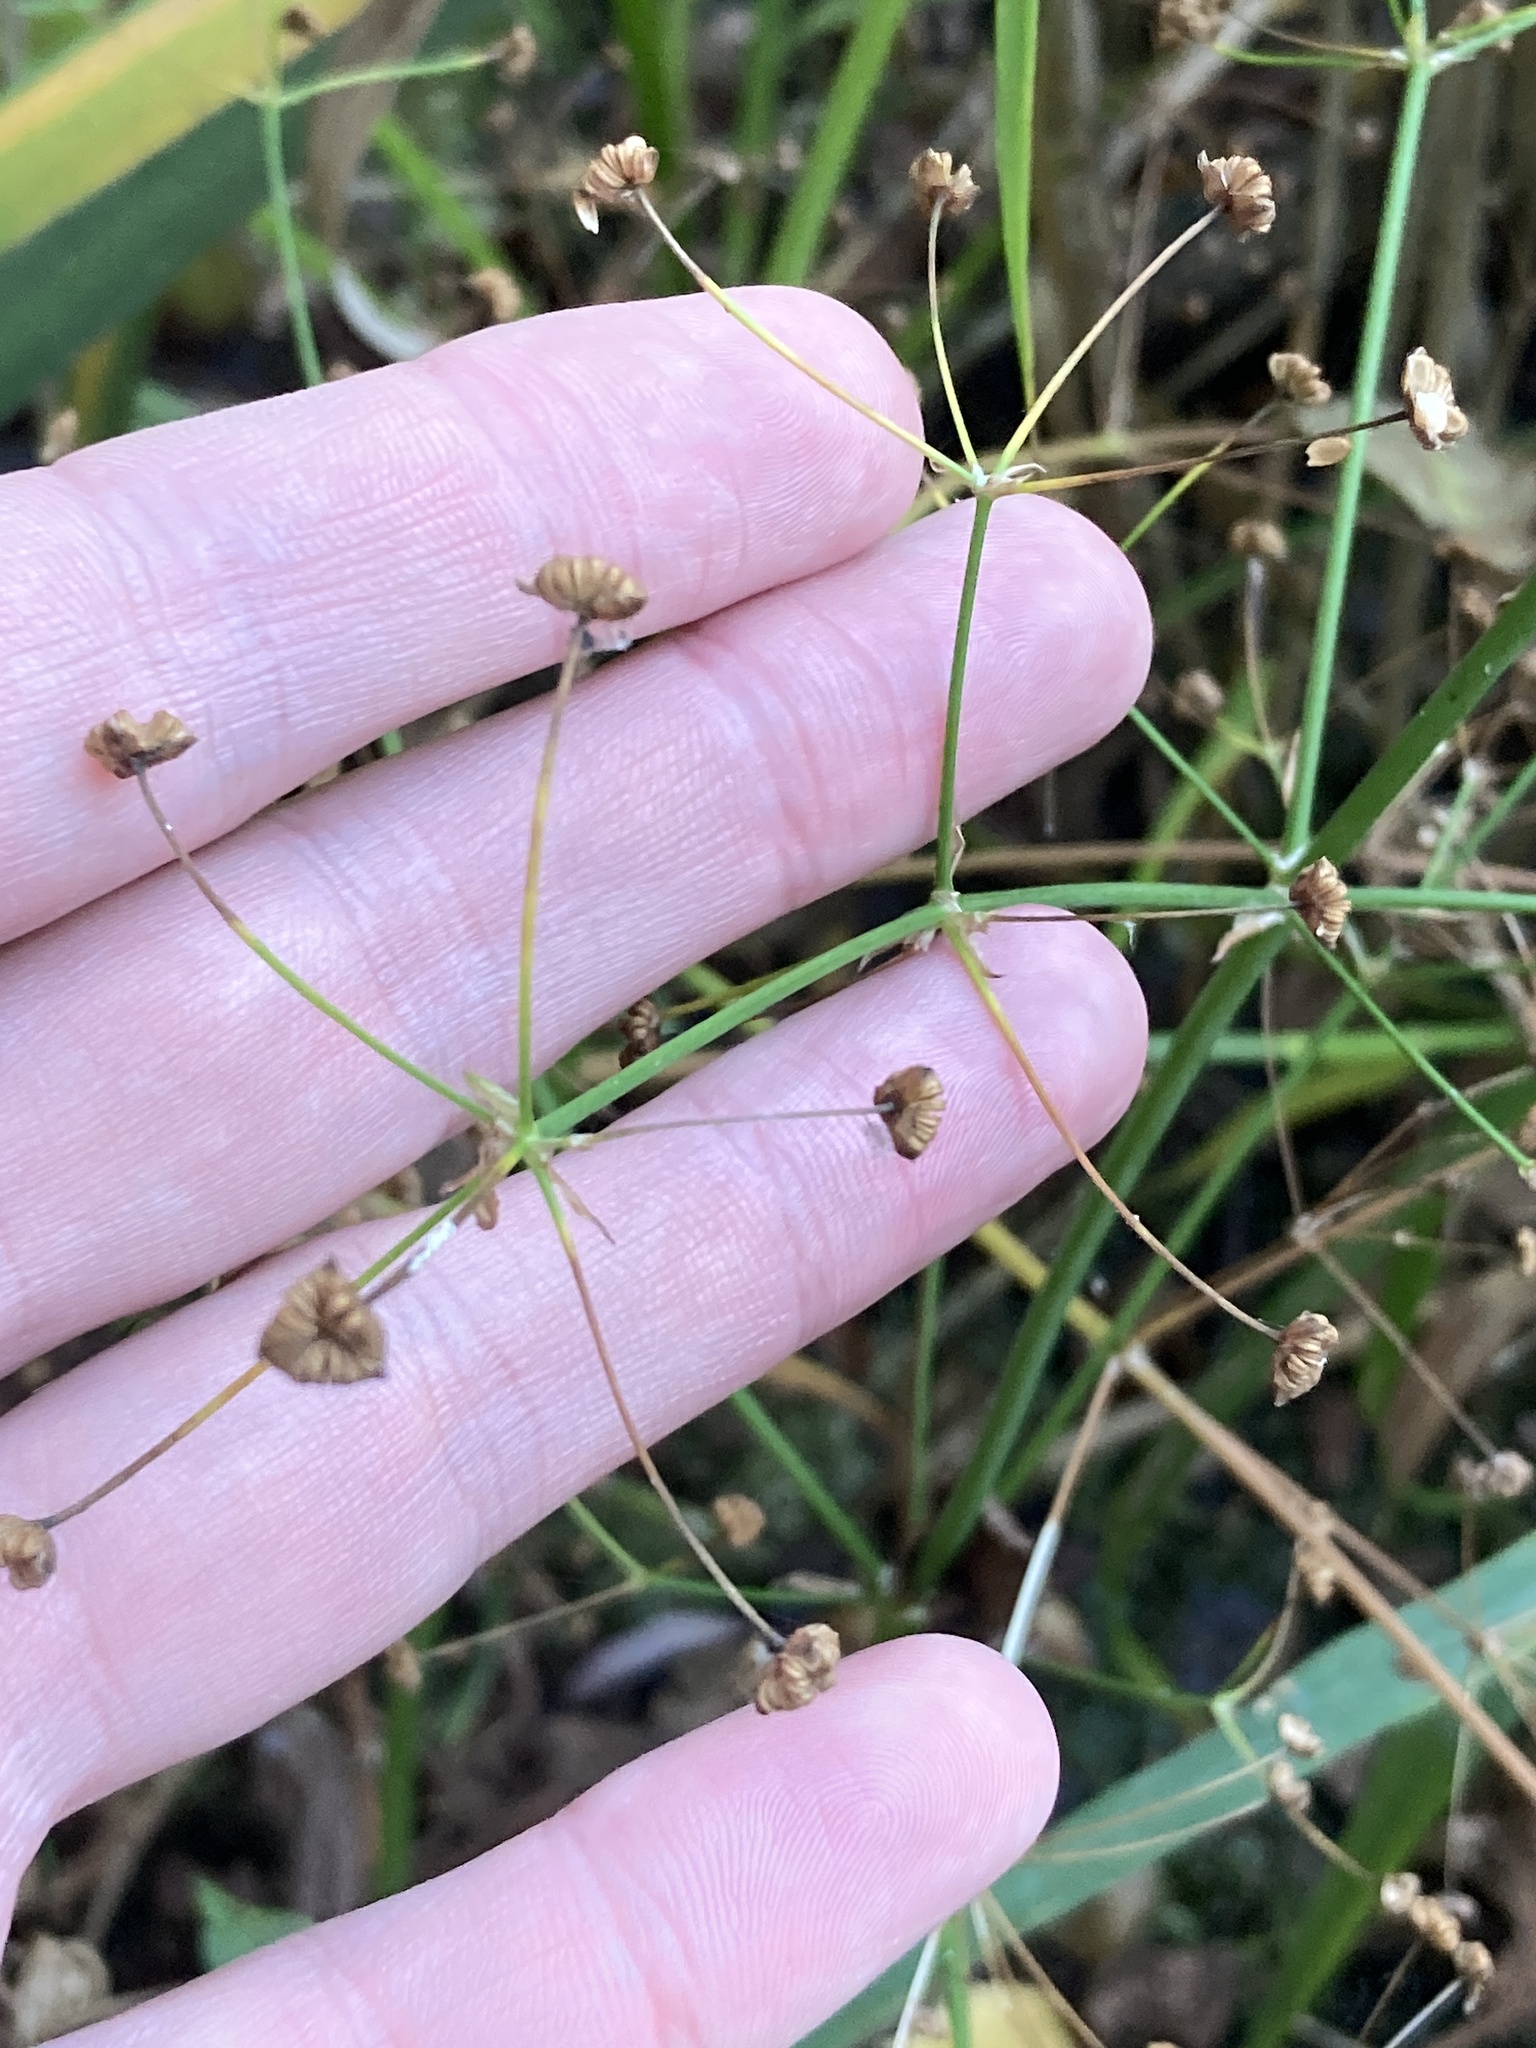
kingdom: Plantae
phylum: Tracheophyta
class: Liliopsida
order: Alismatales
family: Alismataceae
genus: Alisma
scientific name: Alisma plantago-aquatica
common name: Water-plantain
